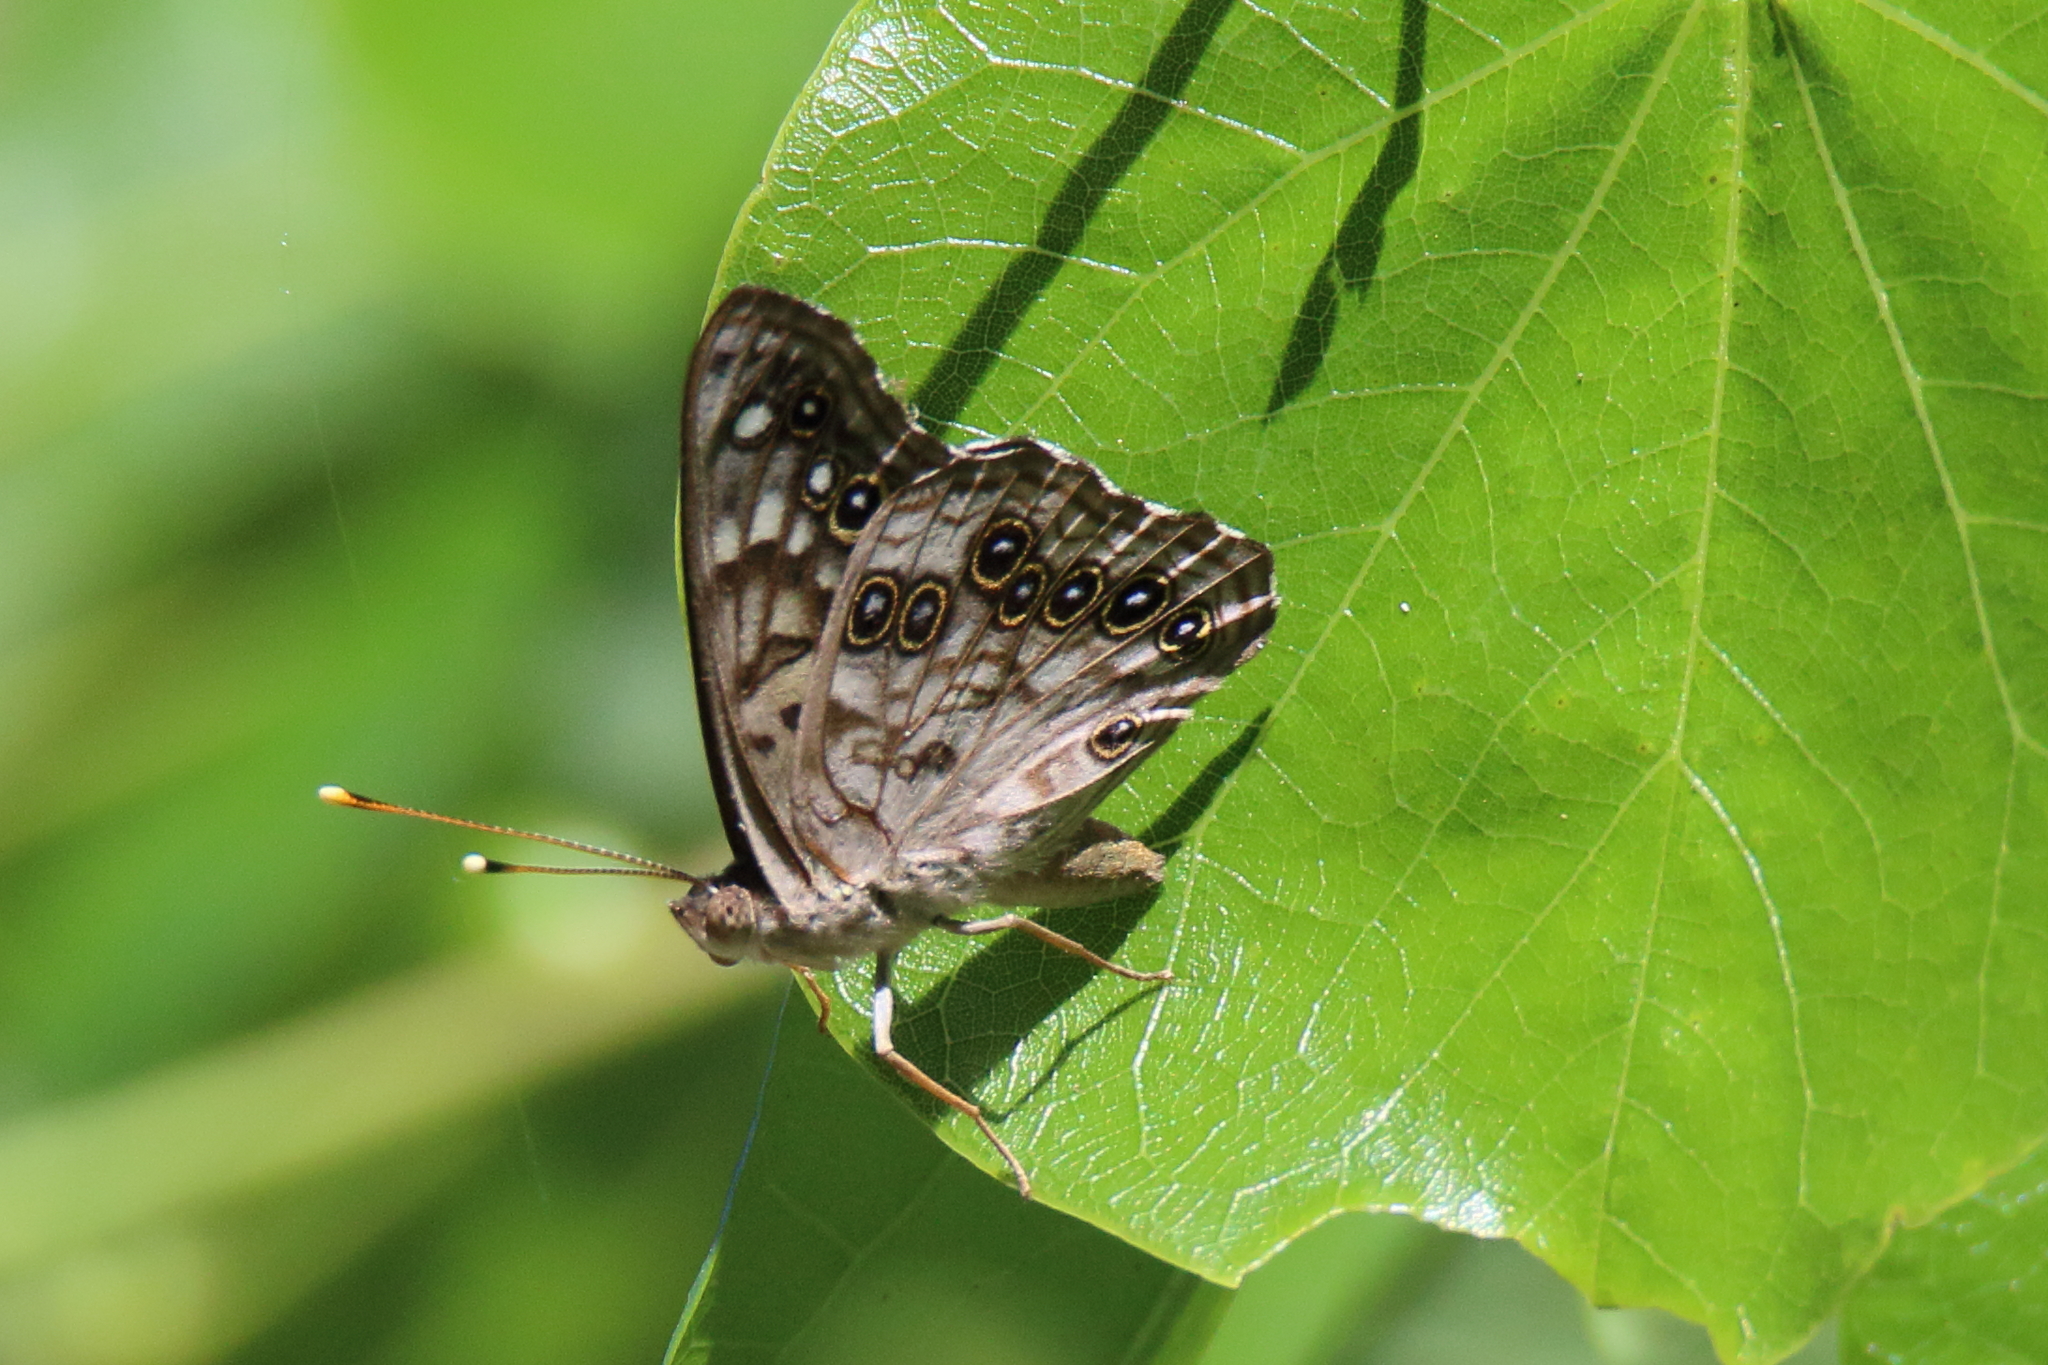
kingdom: Animalia
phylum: Arthropoda
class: Insecta
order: Lepidoptera
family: Nymphalidae
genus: Asterocampa
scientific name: Asterocampa celtis
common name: Hackberry emperor
